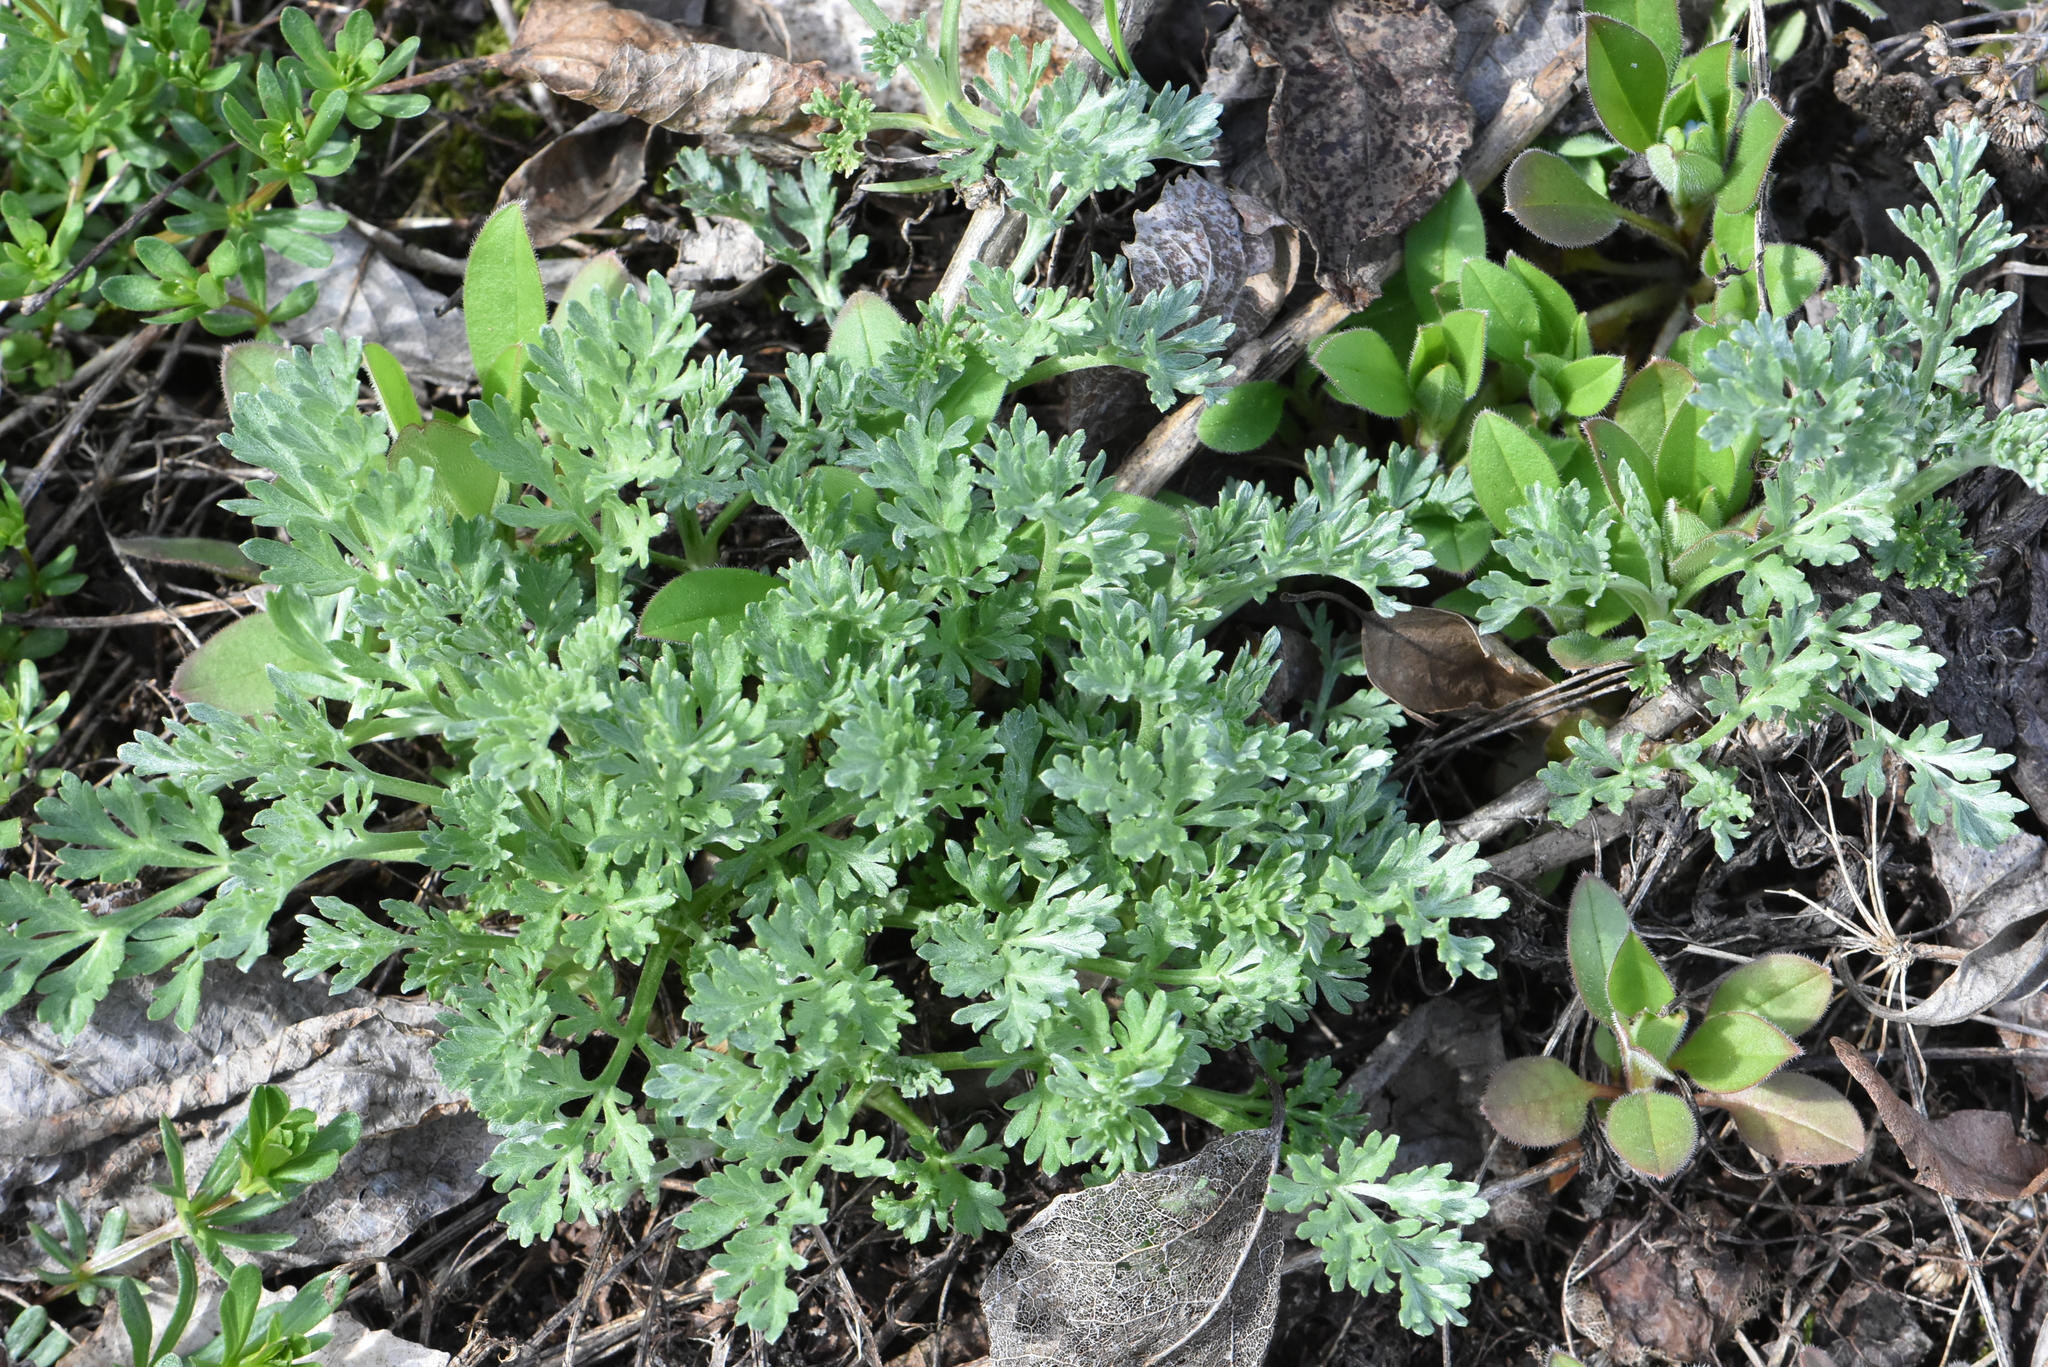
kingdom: Plantae
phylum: Tracheophyta
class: Magnoliopsida
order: Asterales
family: Asteraceae
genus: Artemisia
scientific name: Artemisia absinthium
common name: Wormwood
